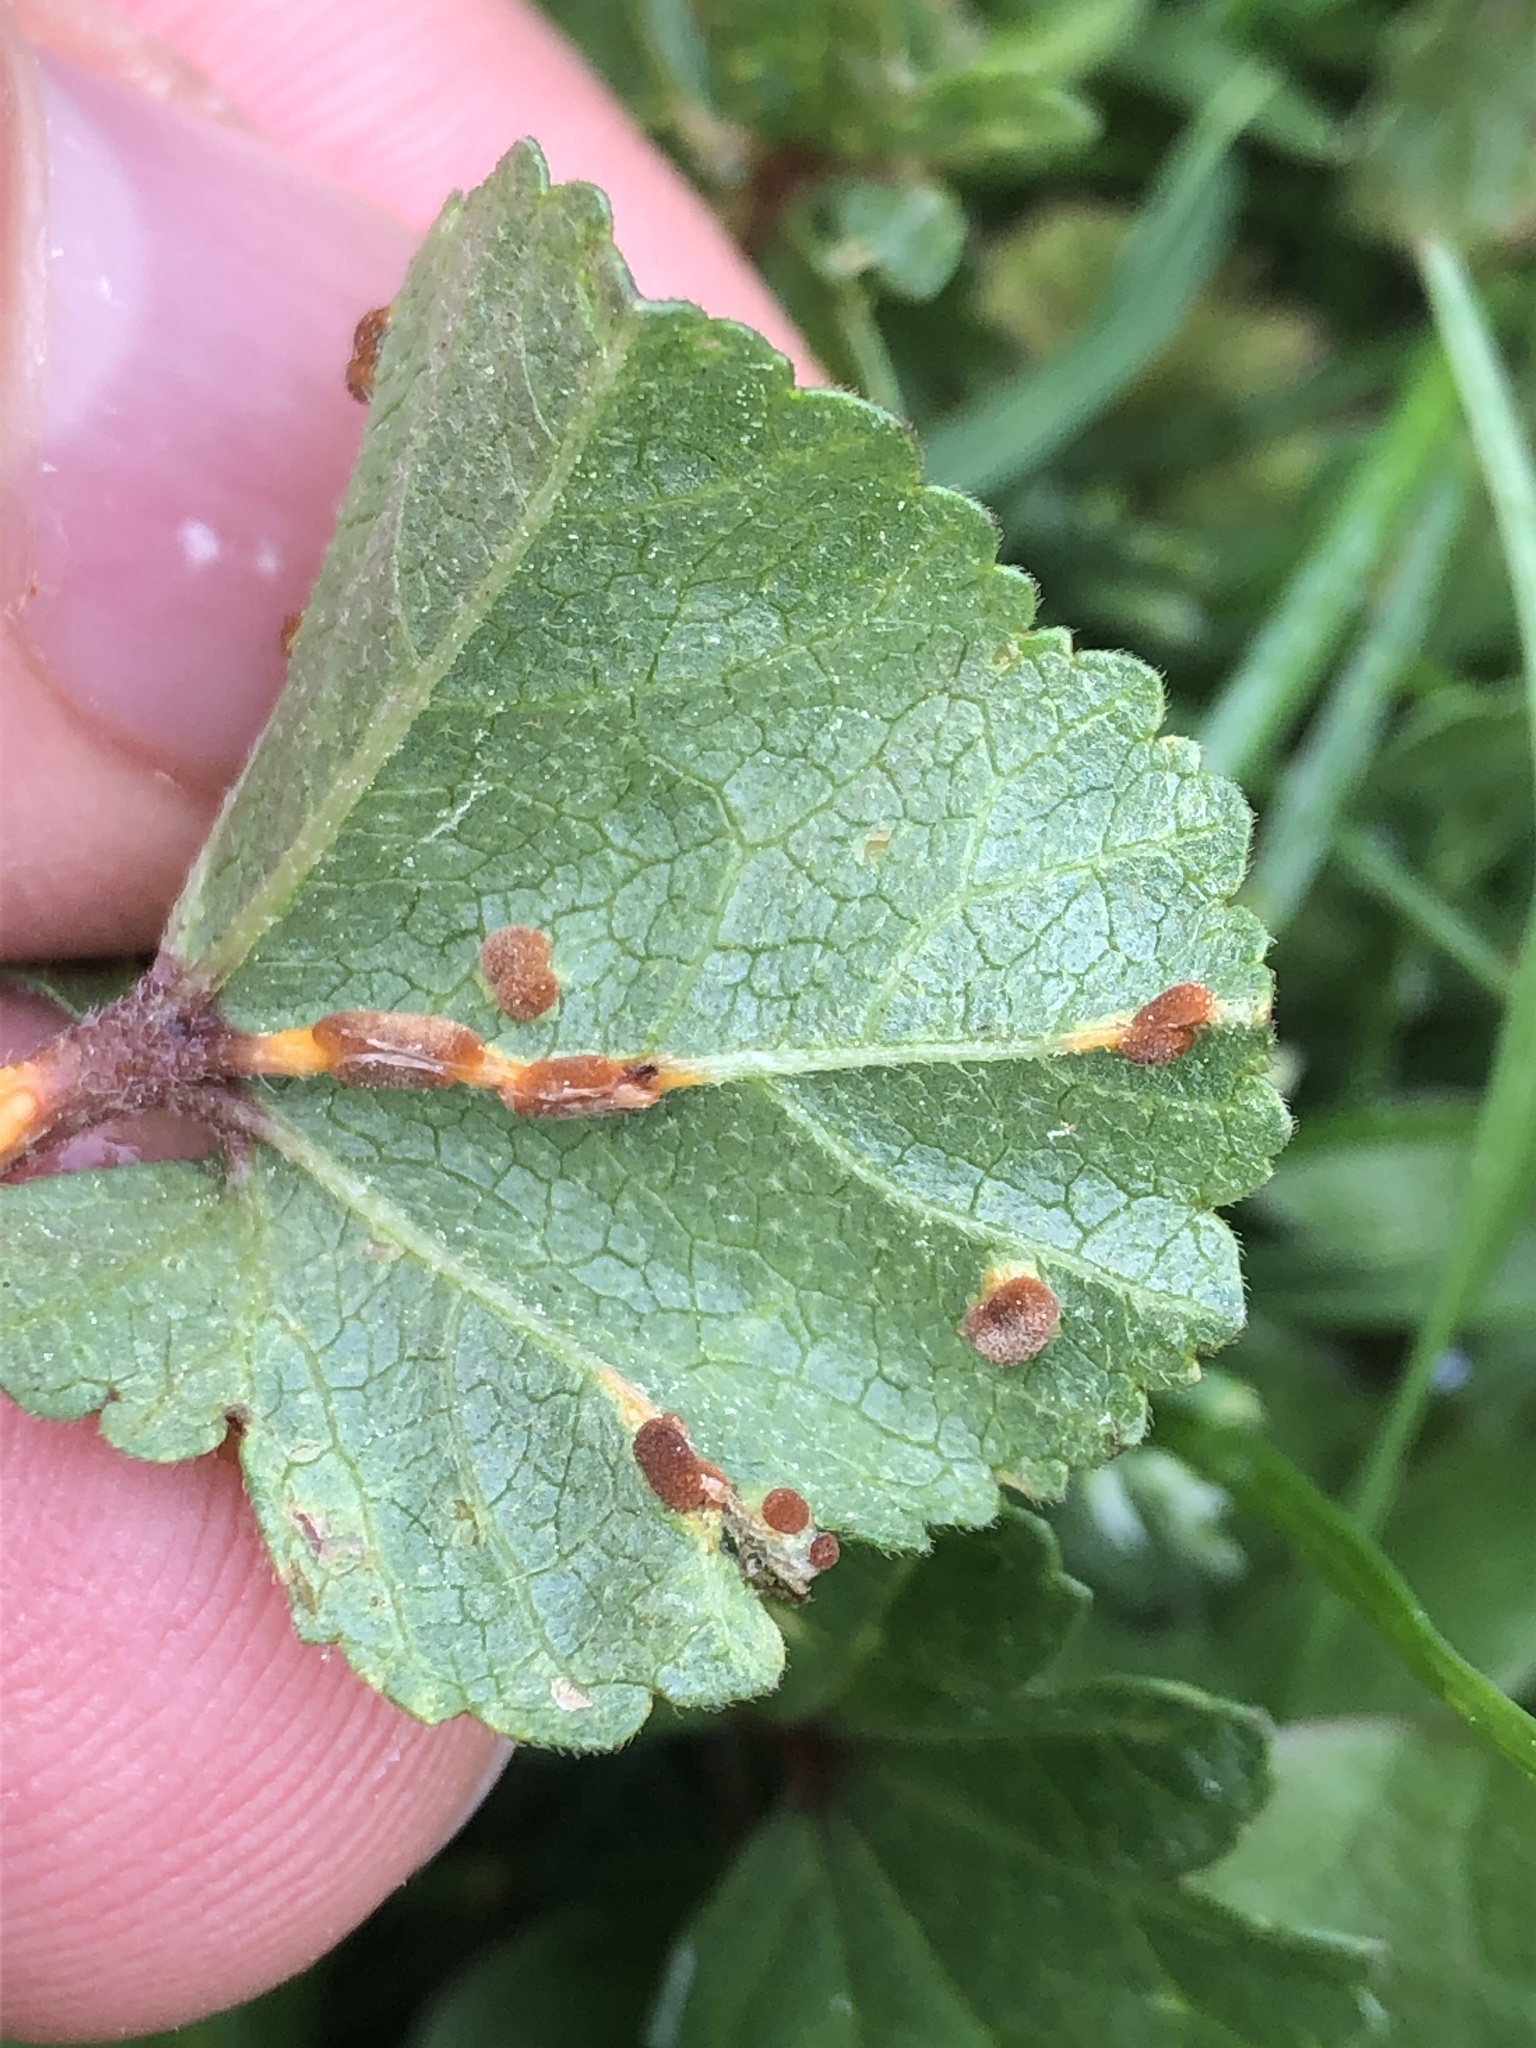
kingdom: Fungi
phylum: Basidiomycota
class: Pucciniomycetes
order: Pucciniales
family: Pucciniaceae
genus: Puccinia
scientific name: Puccinia malvacearum
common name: Hollyhock rust
